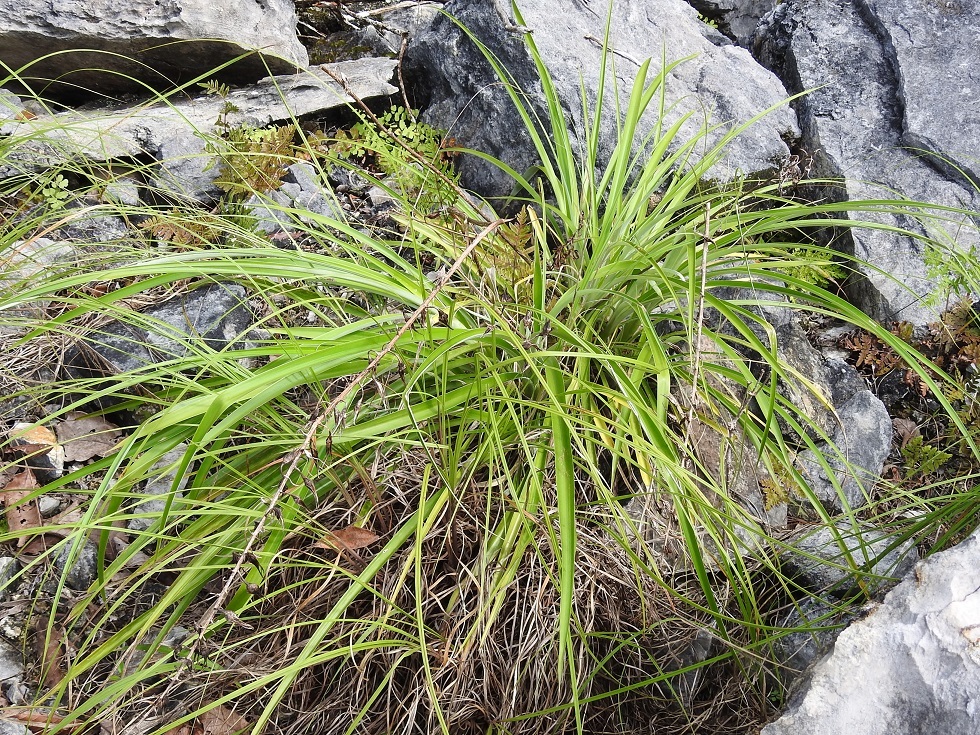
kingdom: Plantae
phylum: Tracheophyta
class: Liliopsida
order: Poales
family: Bromeliaceae
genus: Pitcairnia
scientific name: Pitcairnia breedlovei
